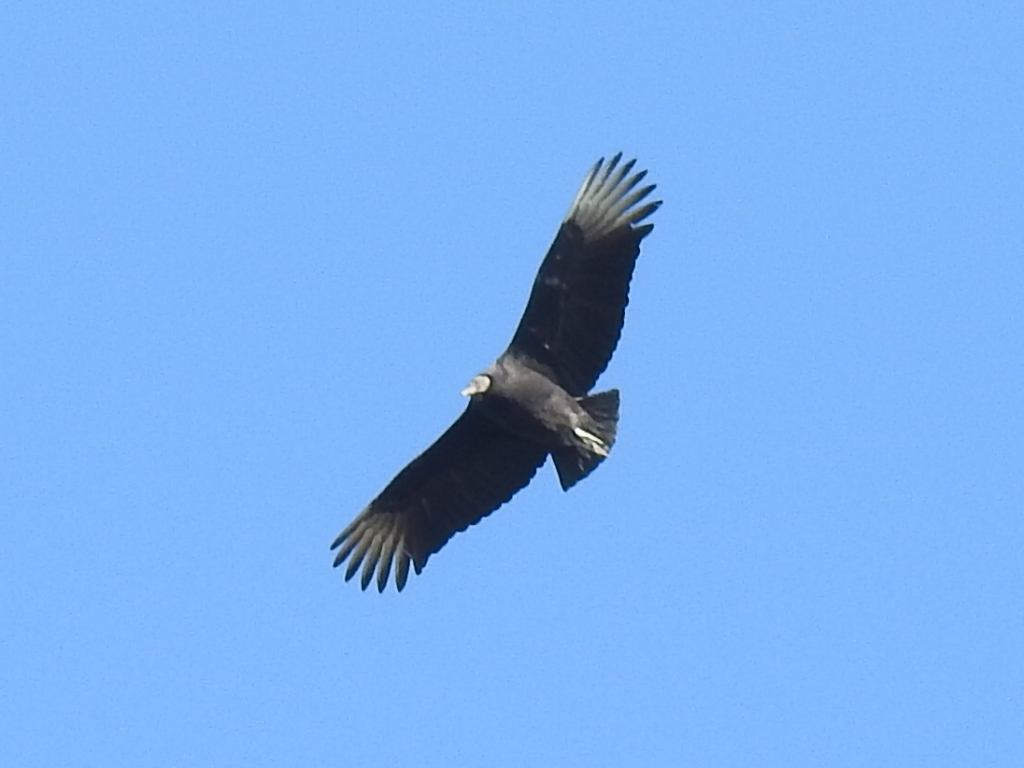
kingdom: Animalia
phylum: Chordata
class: Aves
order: Accipitriformes
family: Cathartidae
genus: Coragyps
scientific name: Coragyps atratus
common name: Black vulture
